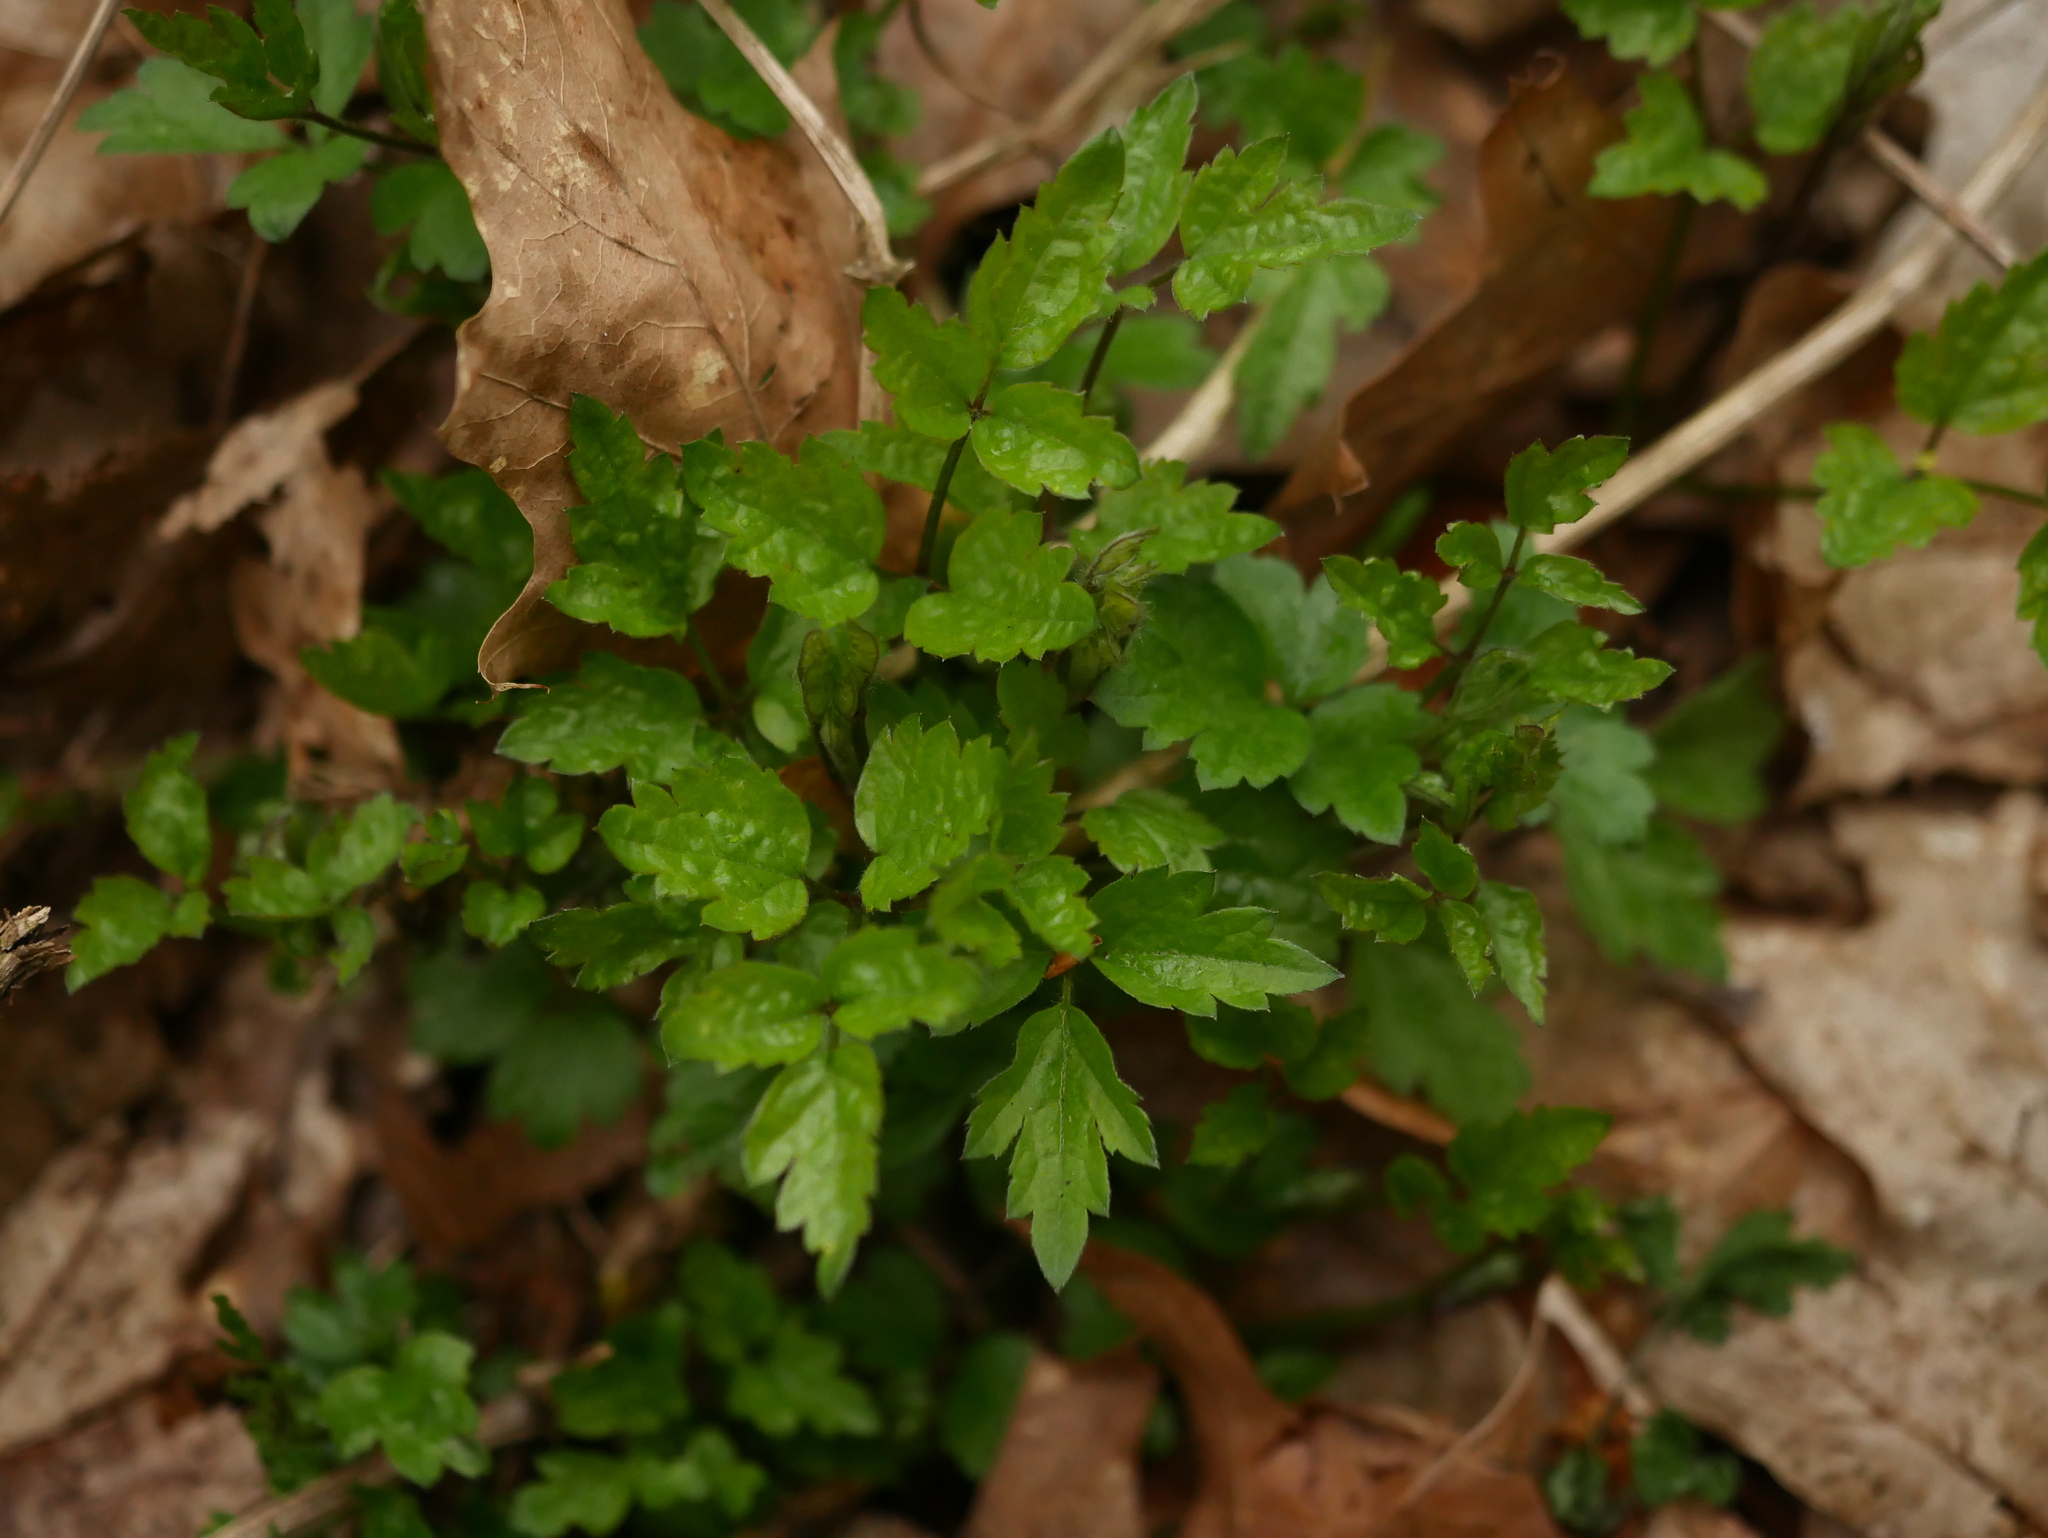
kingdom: Plantae
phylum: Tracheophyta
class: Magnoliopsida
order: Ranunculales
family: Ranunculaceae
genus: Clematis
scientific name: Clematis vitalba
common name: Evergreen clematis
